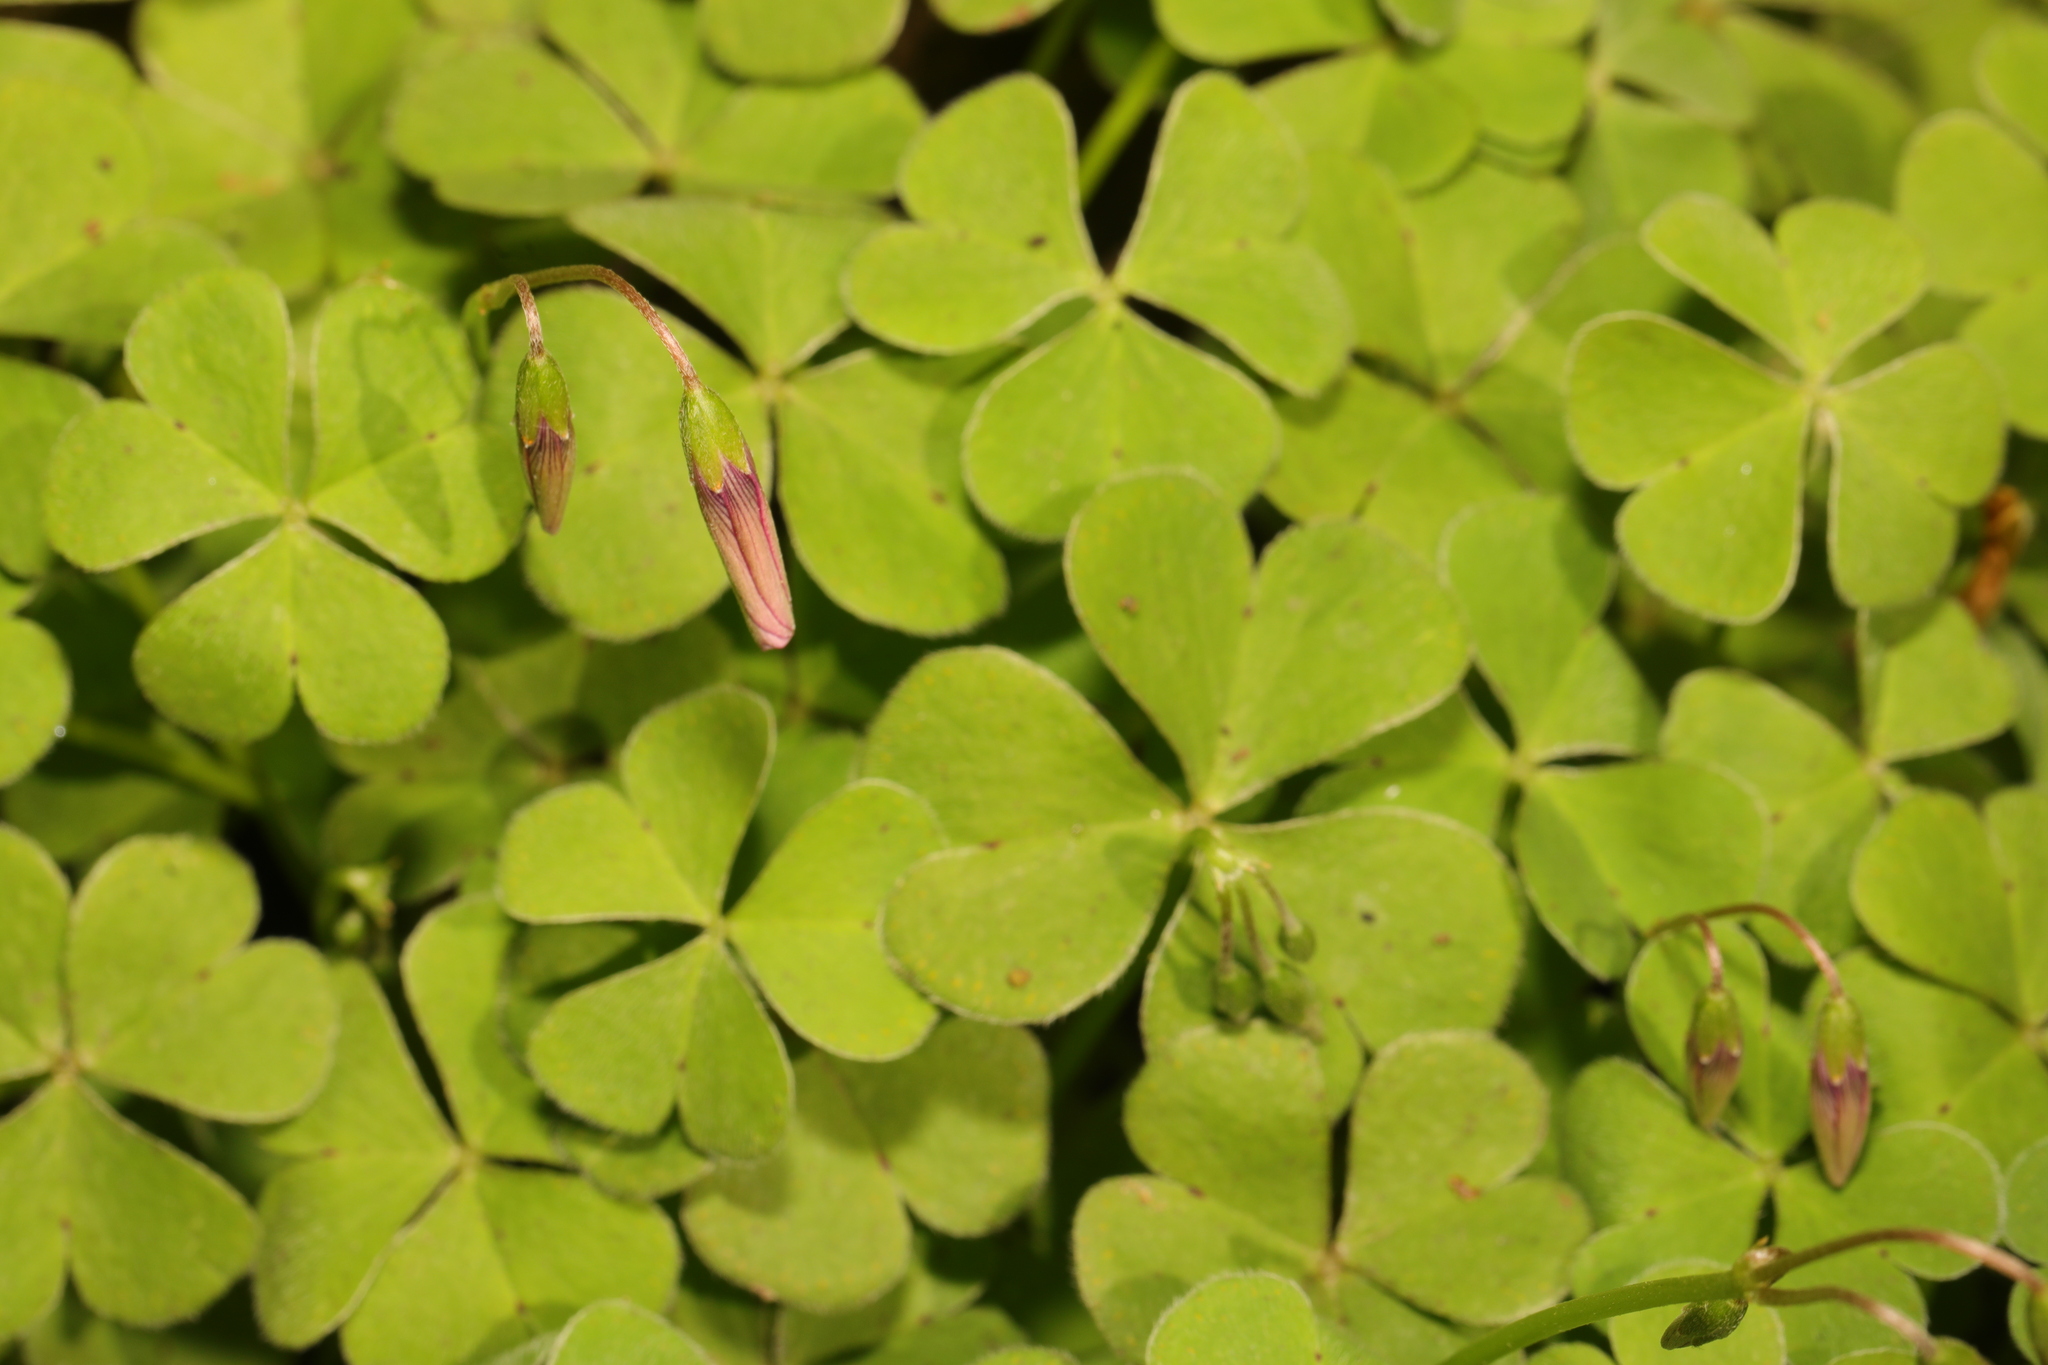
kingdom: Plantae
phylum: Tracheophyta
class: Magnoliopsida
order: Oxalidales
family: Oxalidaceae
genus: Oxalis
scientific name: Oxalis articulata
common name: Pink-sorrel
